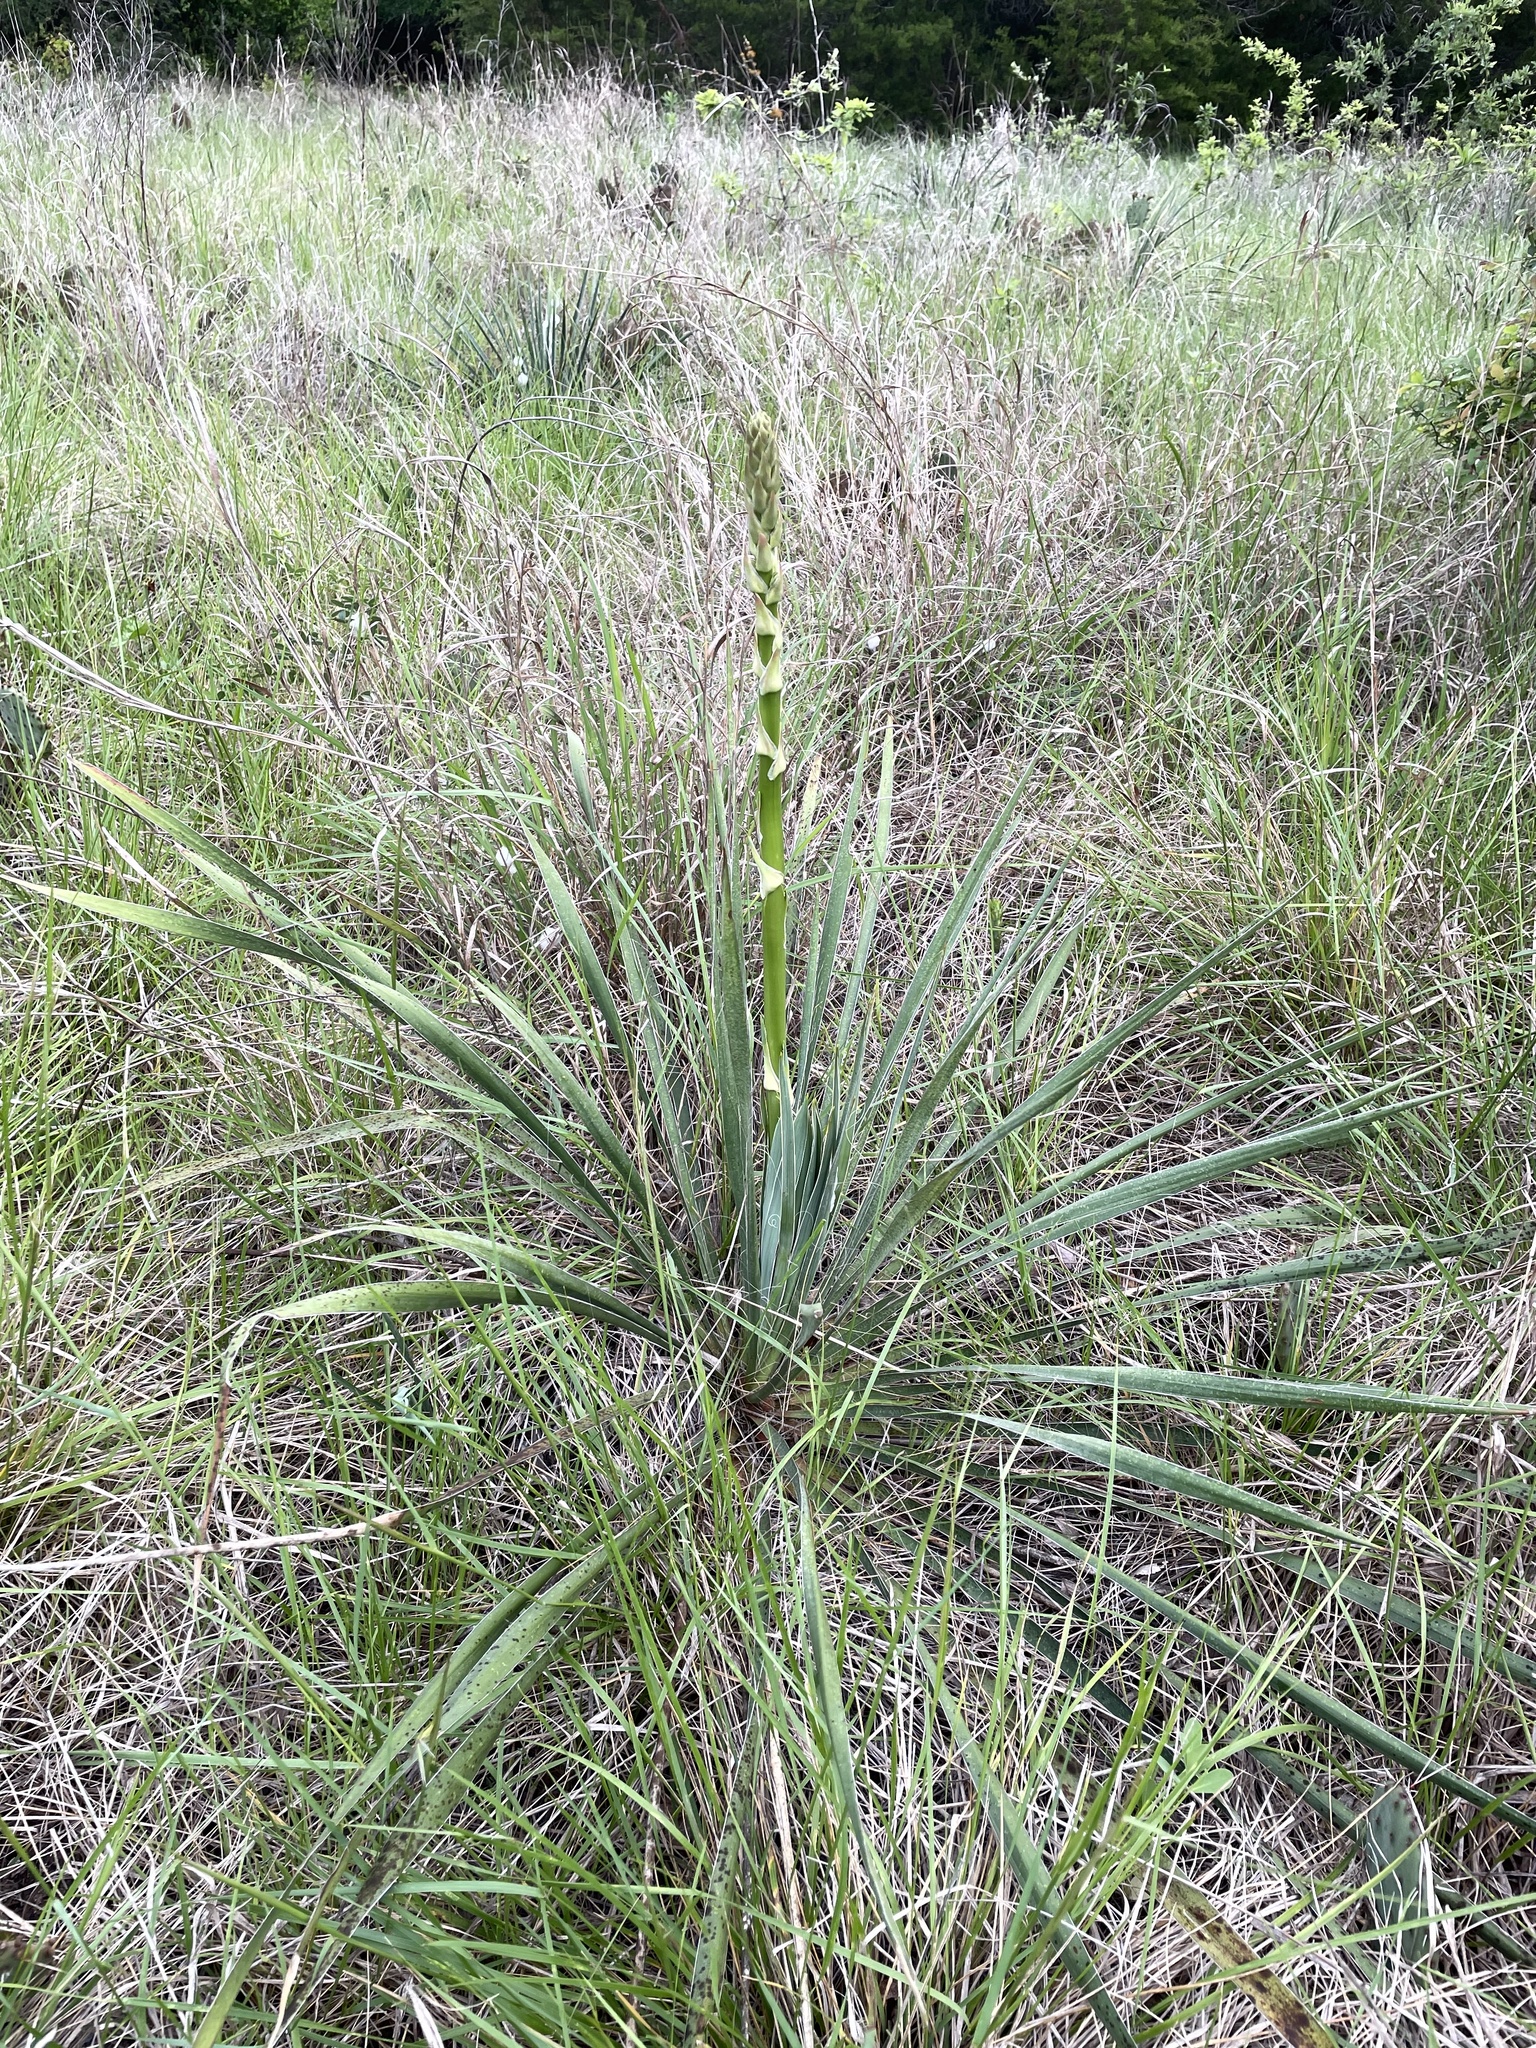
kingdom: Plantae
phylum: Tracheophyta
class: Liliopsida
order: Asparagales
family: Asparagaceae
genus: Yucca
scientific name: Yucca arkansana
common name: Arkansas yucca
